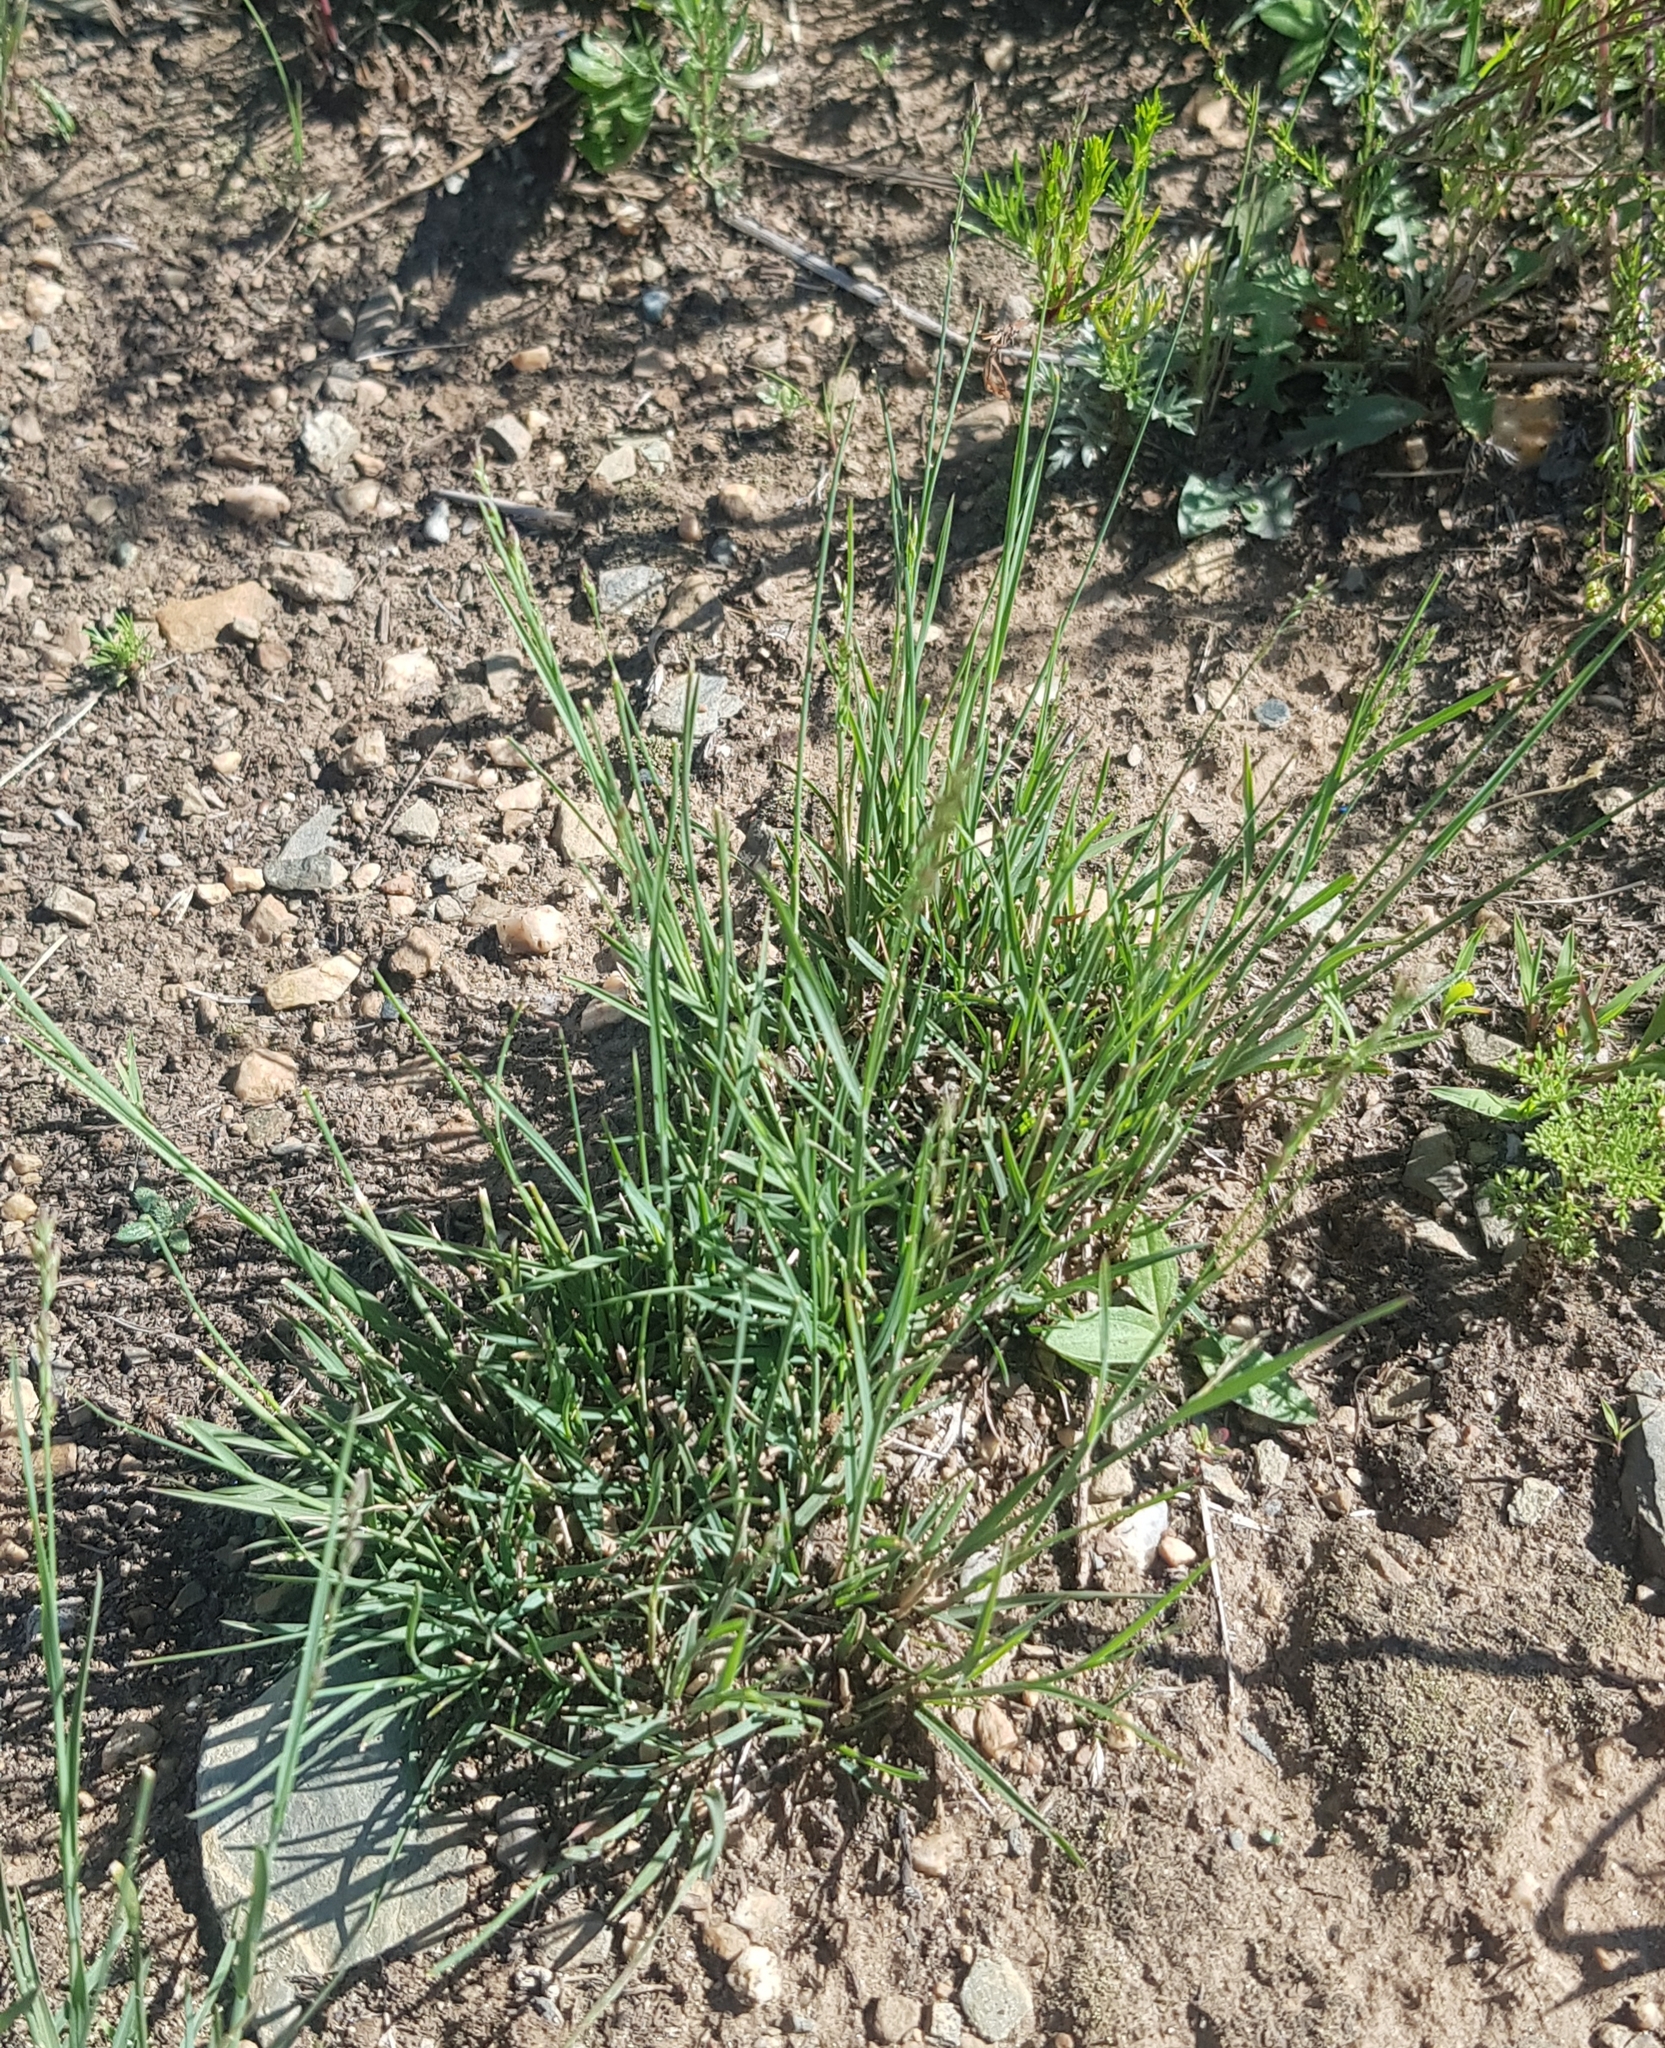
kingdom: Plantae
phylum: Tracheophyta
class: Liliopsida
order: Poales
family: Poaceae
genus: Cleistogenes
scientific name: Cleistogenes squarrosa
